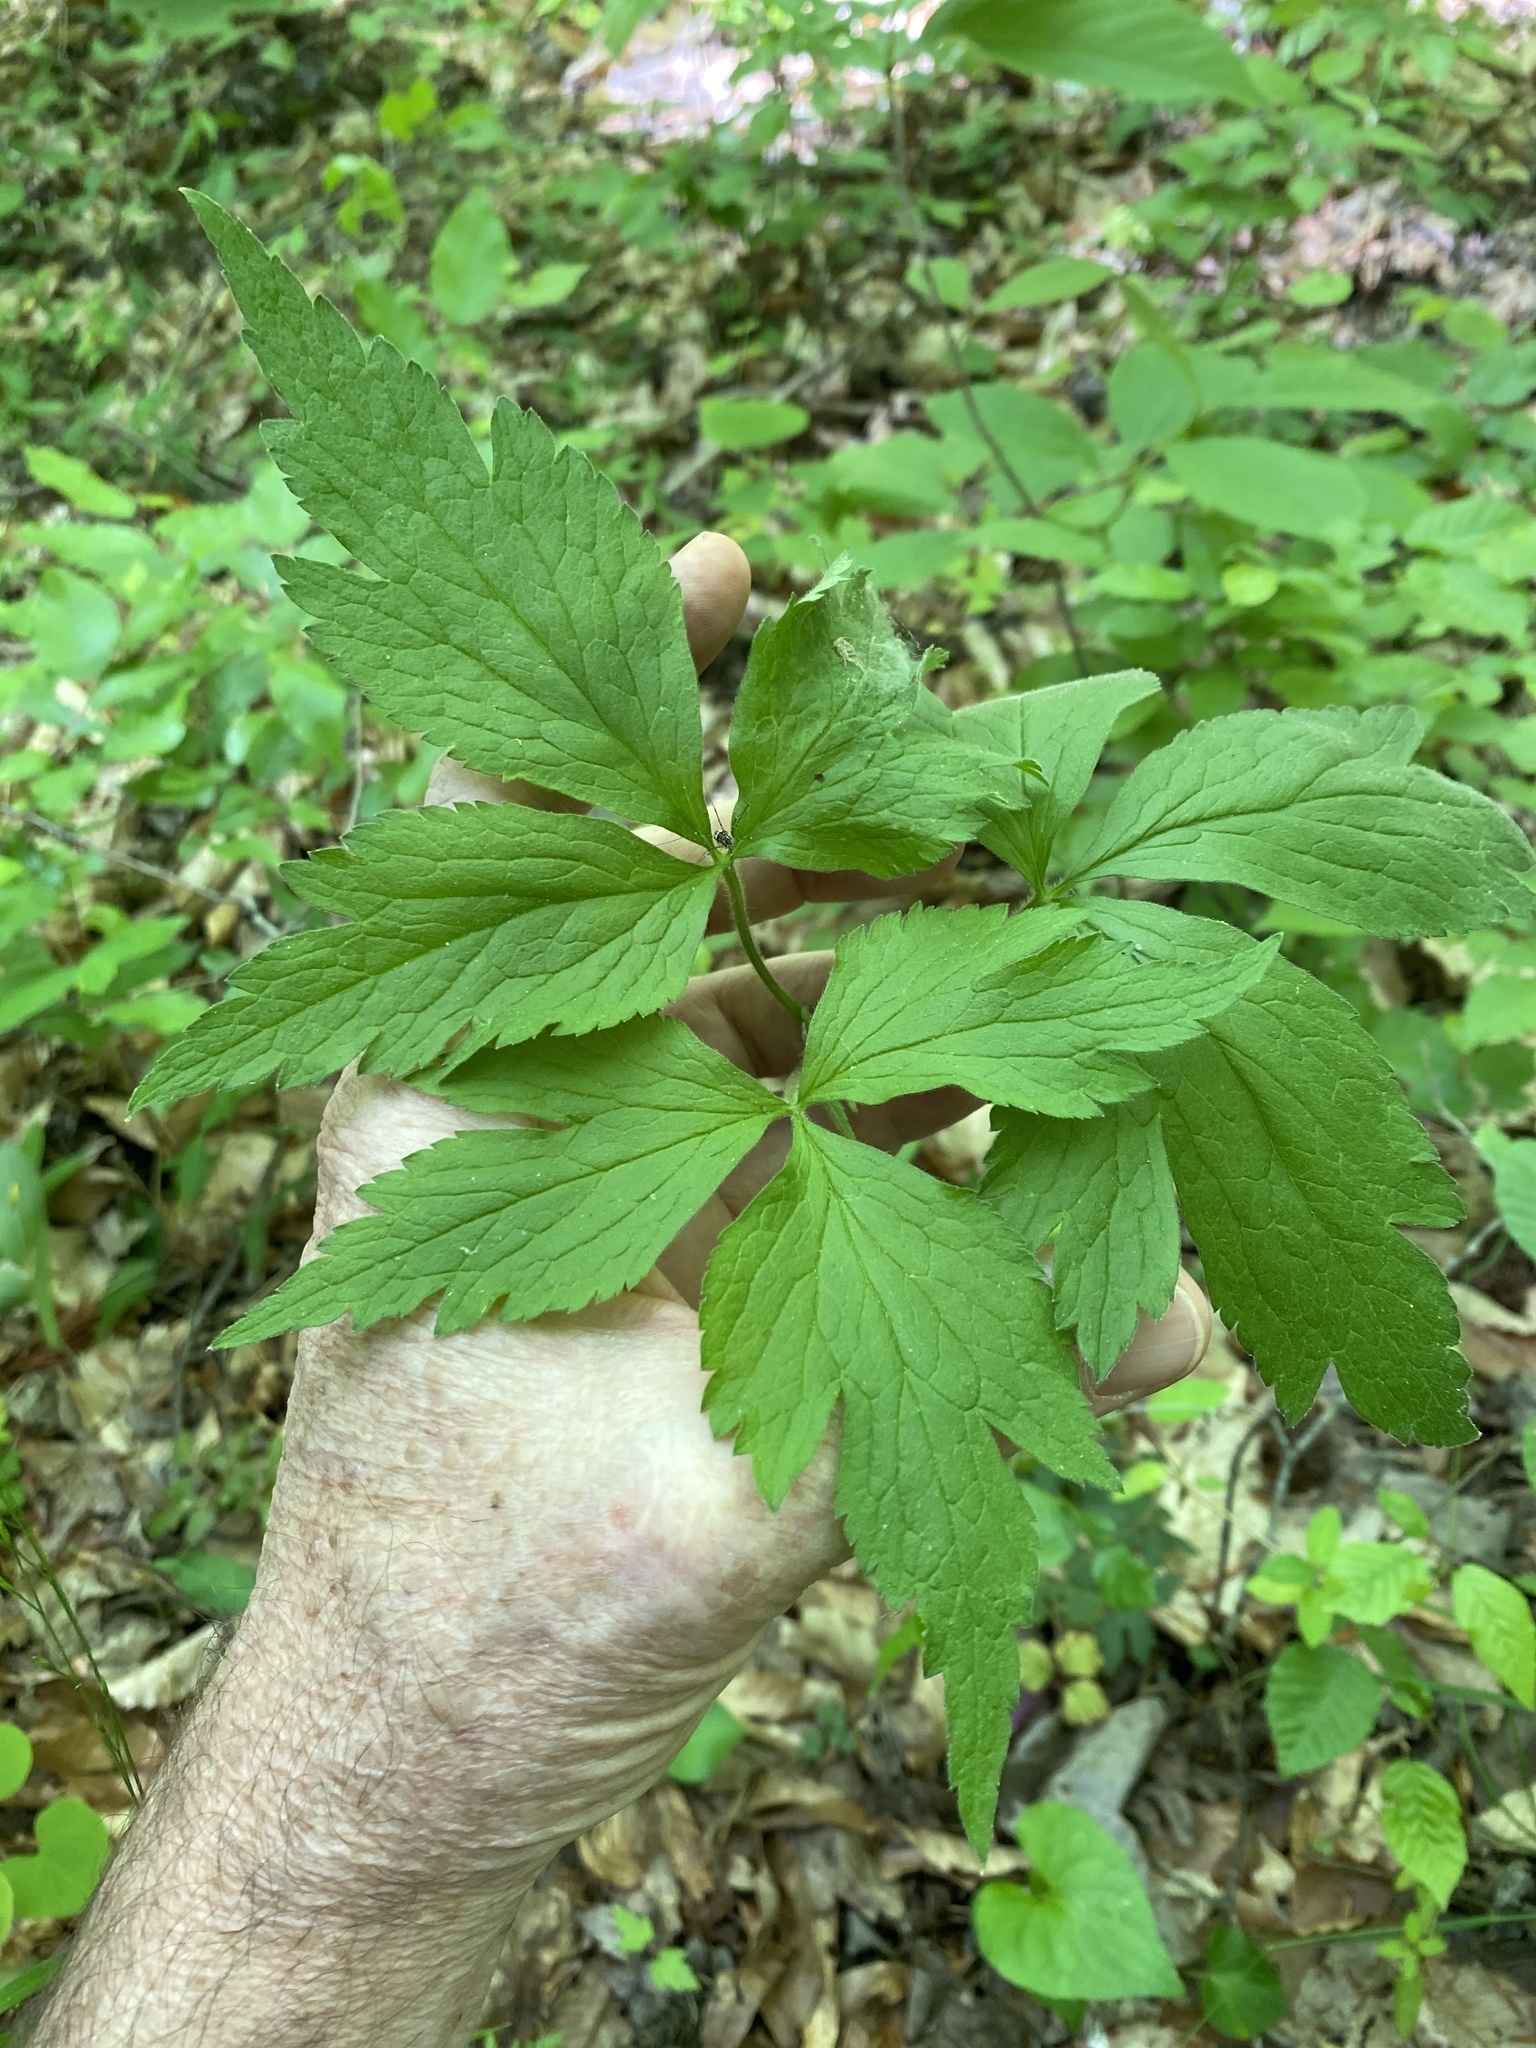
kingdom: Plantae
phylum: Tracheophyta
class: Magnoliopsida
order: Ranunculales
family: Ranunculaceae
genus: Anemone
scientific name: Anemone virginiana
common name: Tall anemone
